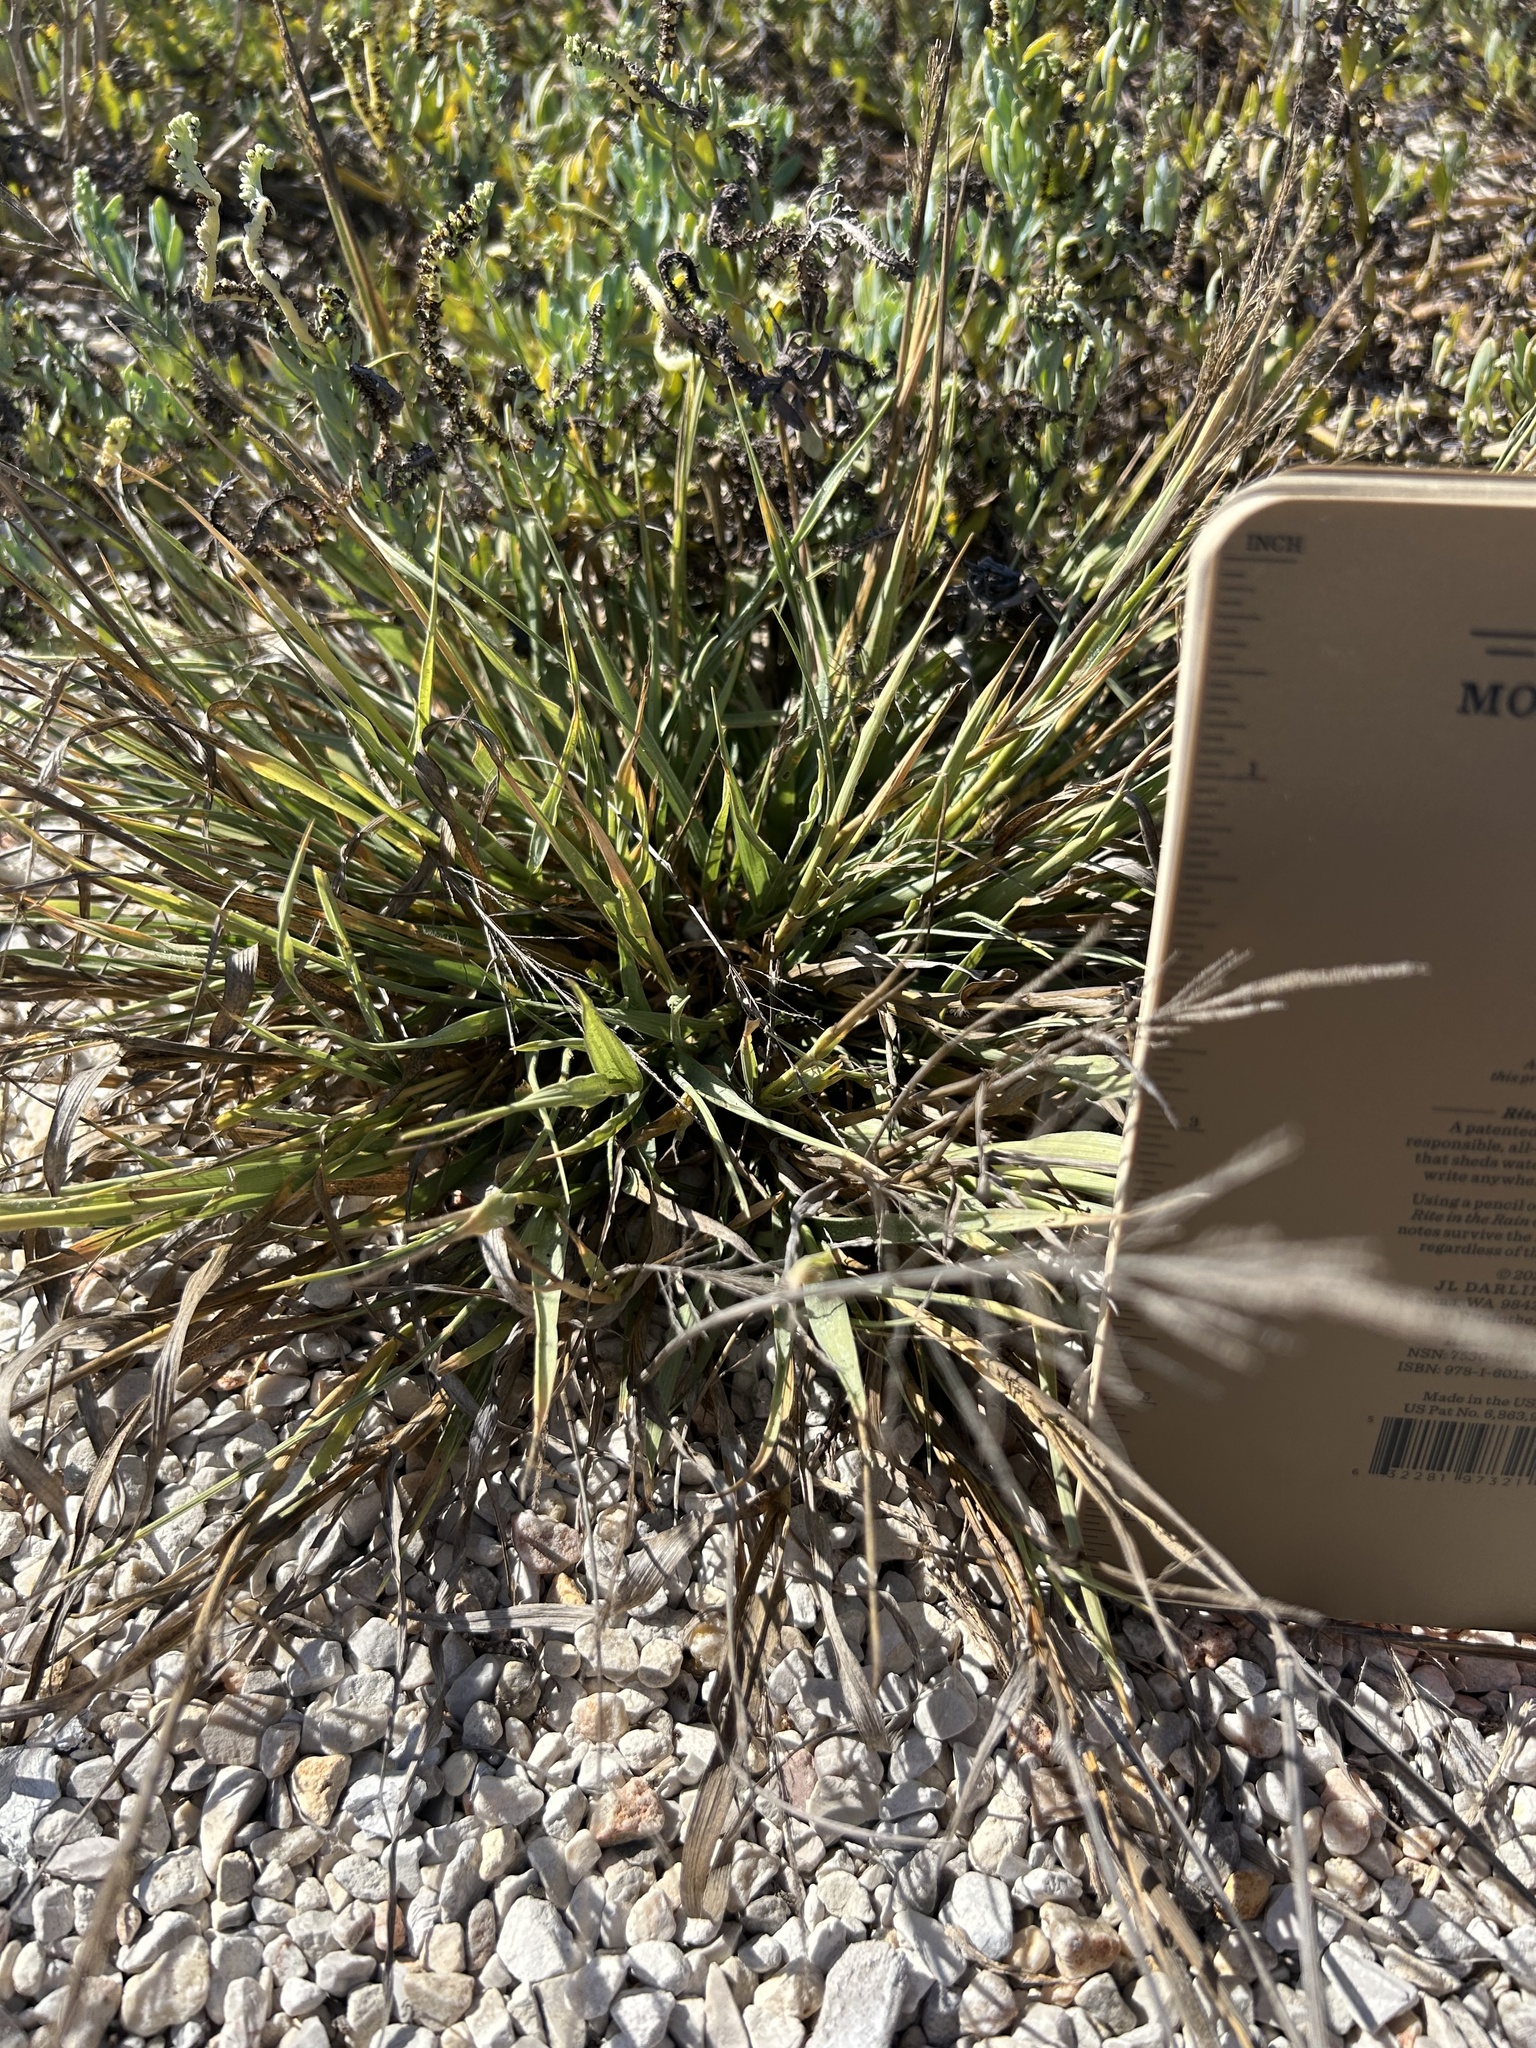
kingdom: Plantae
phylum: Tracheophyta
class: Liliopsida
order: Poales
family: Poaceae
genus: Sporobolus
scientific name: Sporobolus pyramidatus
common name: Whorled dropseed
